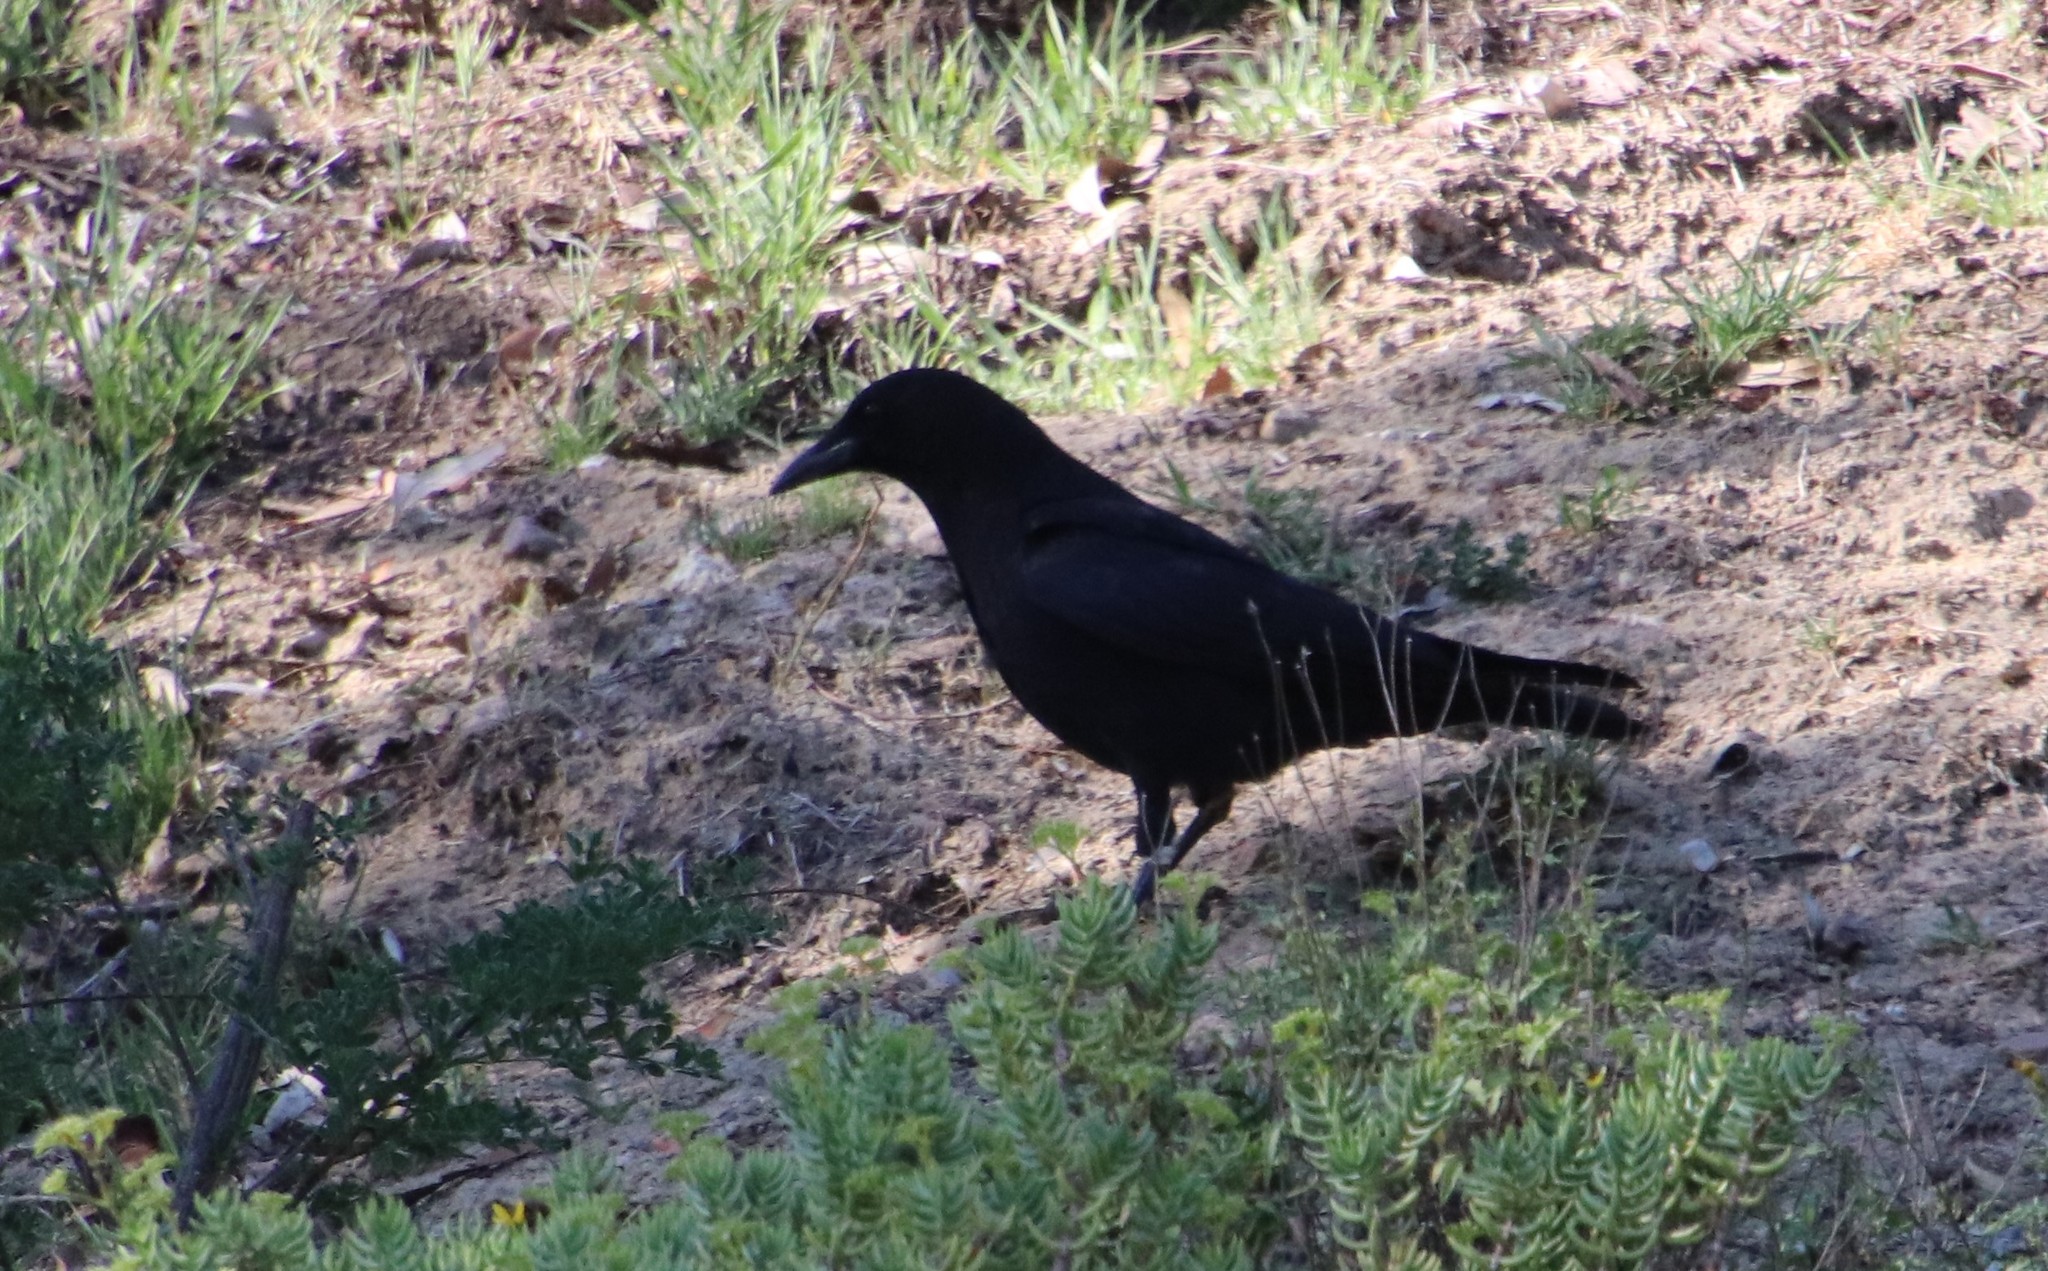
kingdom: Animalia
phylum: Chordata
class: Aves
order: Passeriformes
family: Corvidae
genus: Corvus
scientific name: Corvus brachyrhynchos
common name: American crow
